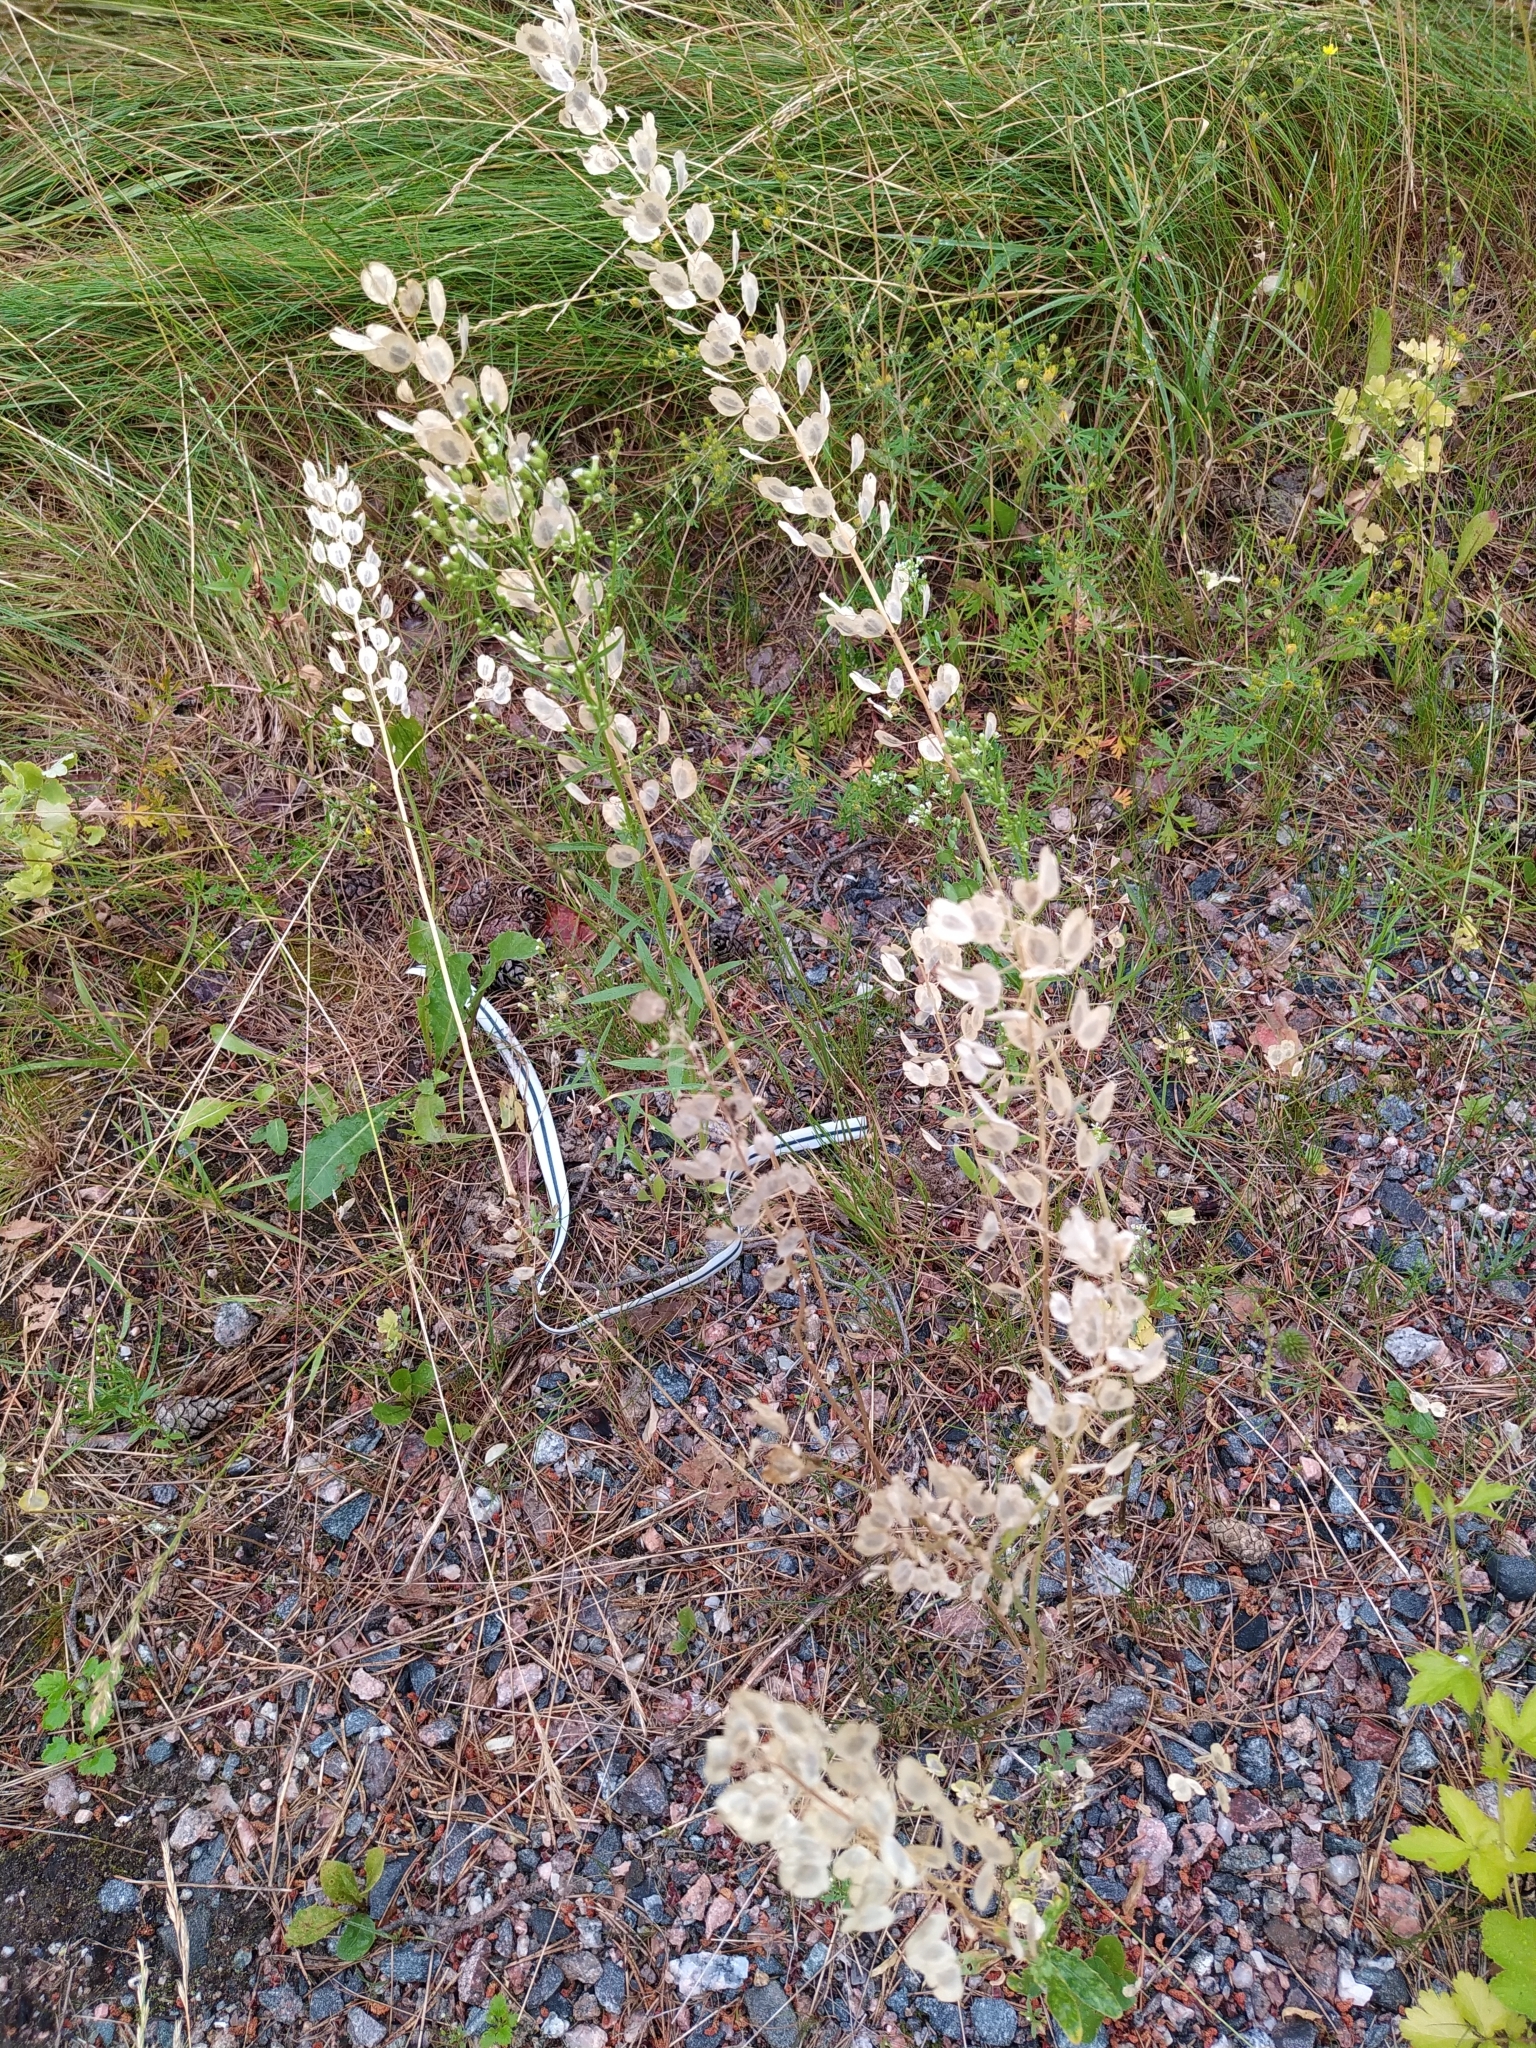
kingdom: Plantae
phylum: Tracheophyta
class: Magnoliopsida
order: Brassicales
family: Brassicaceae
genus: Thlaspi
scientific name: Thlaspi arvense
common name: Field pennycress
